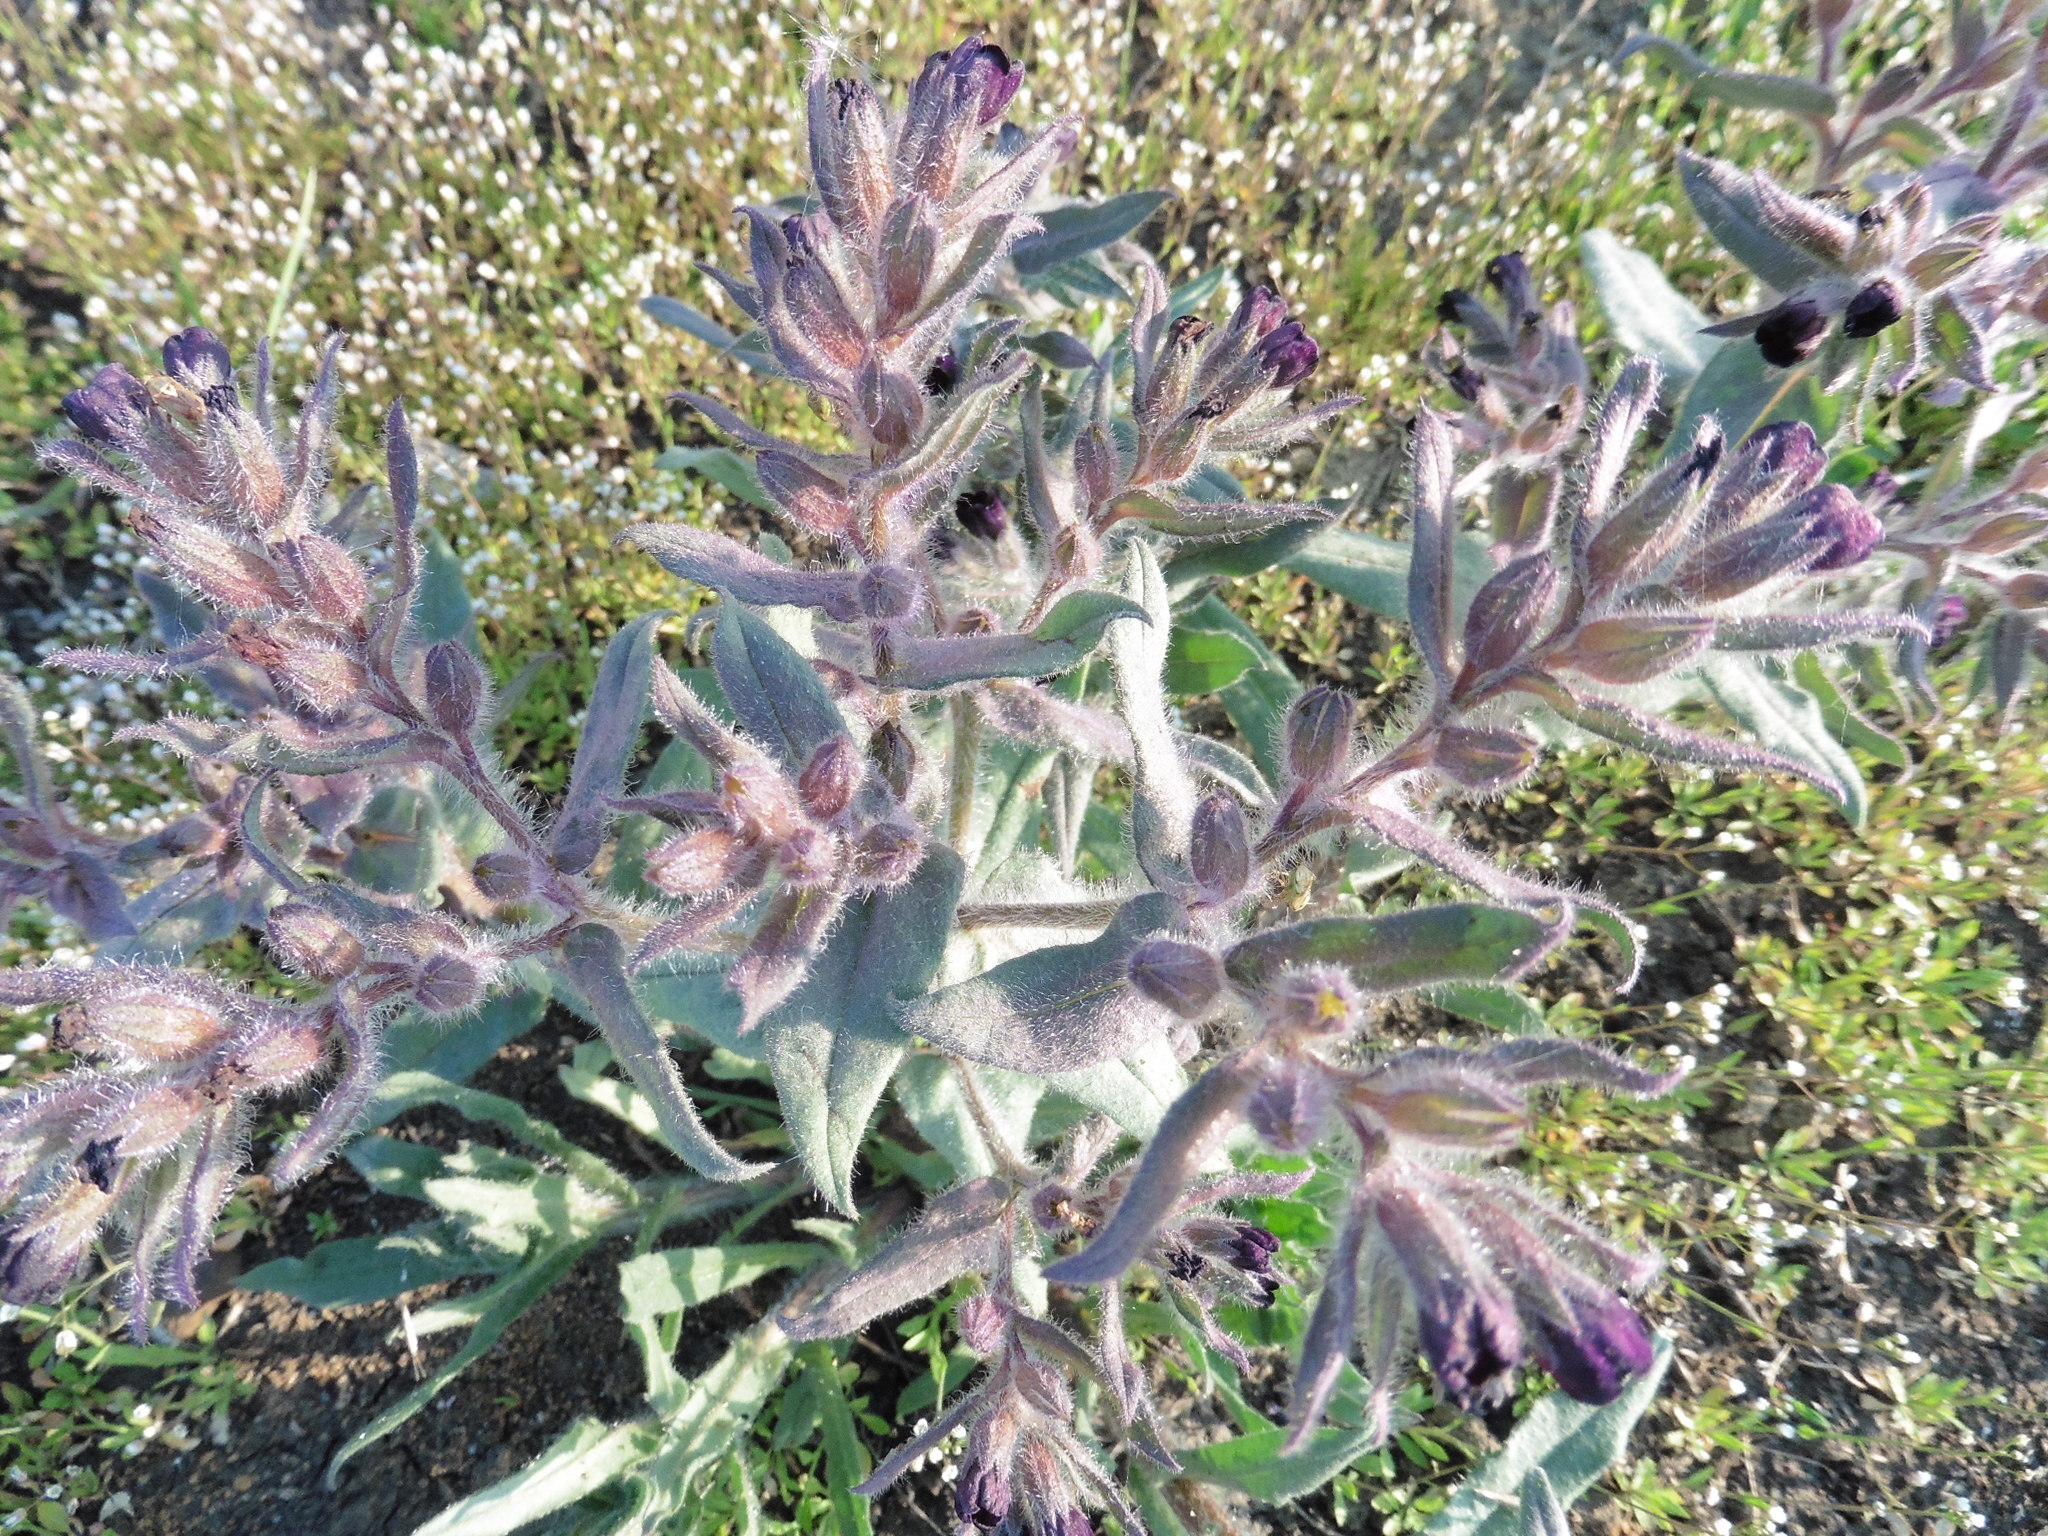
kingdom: Plantae
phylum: Tracheophyta
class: Magnoliopsida
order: Boraginales
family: Boraginaceae
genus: Nonea
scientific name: Nonea pulla
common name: Brown nonea
